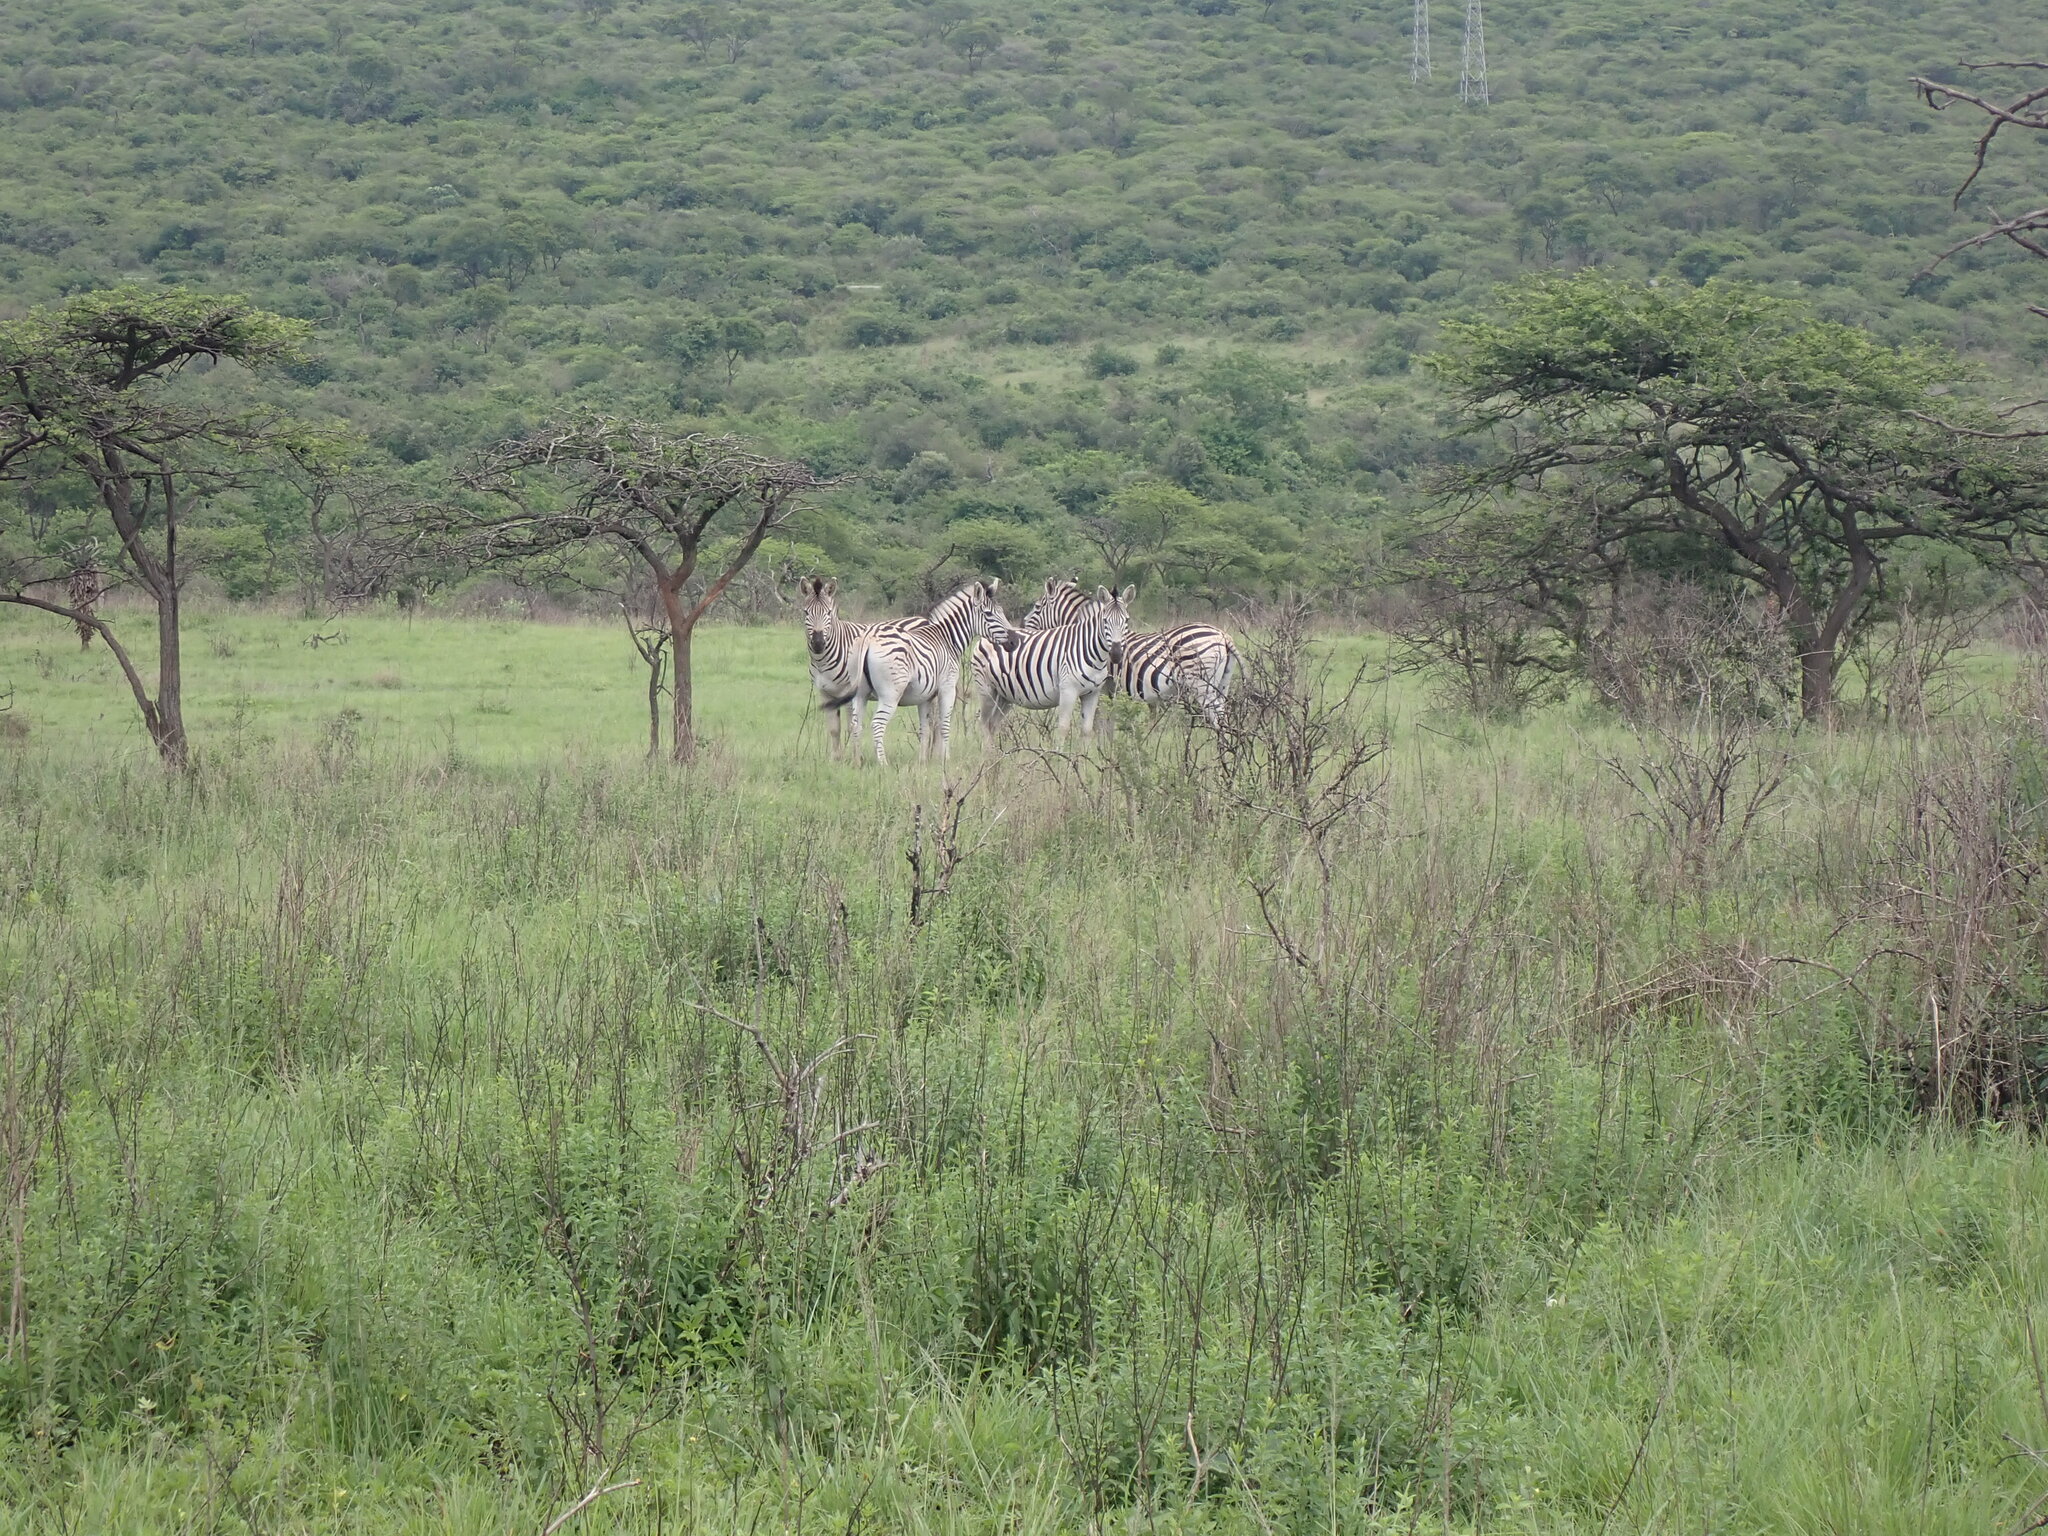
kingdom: Animalia
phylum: Chordata
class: Mammalia
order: Perissodactyla
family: Equidae
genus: Equus
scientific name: Equus quagga
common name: Plains zebra
